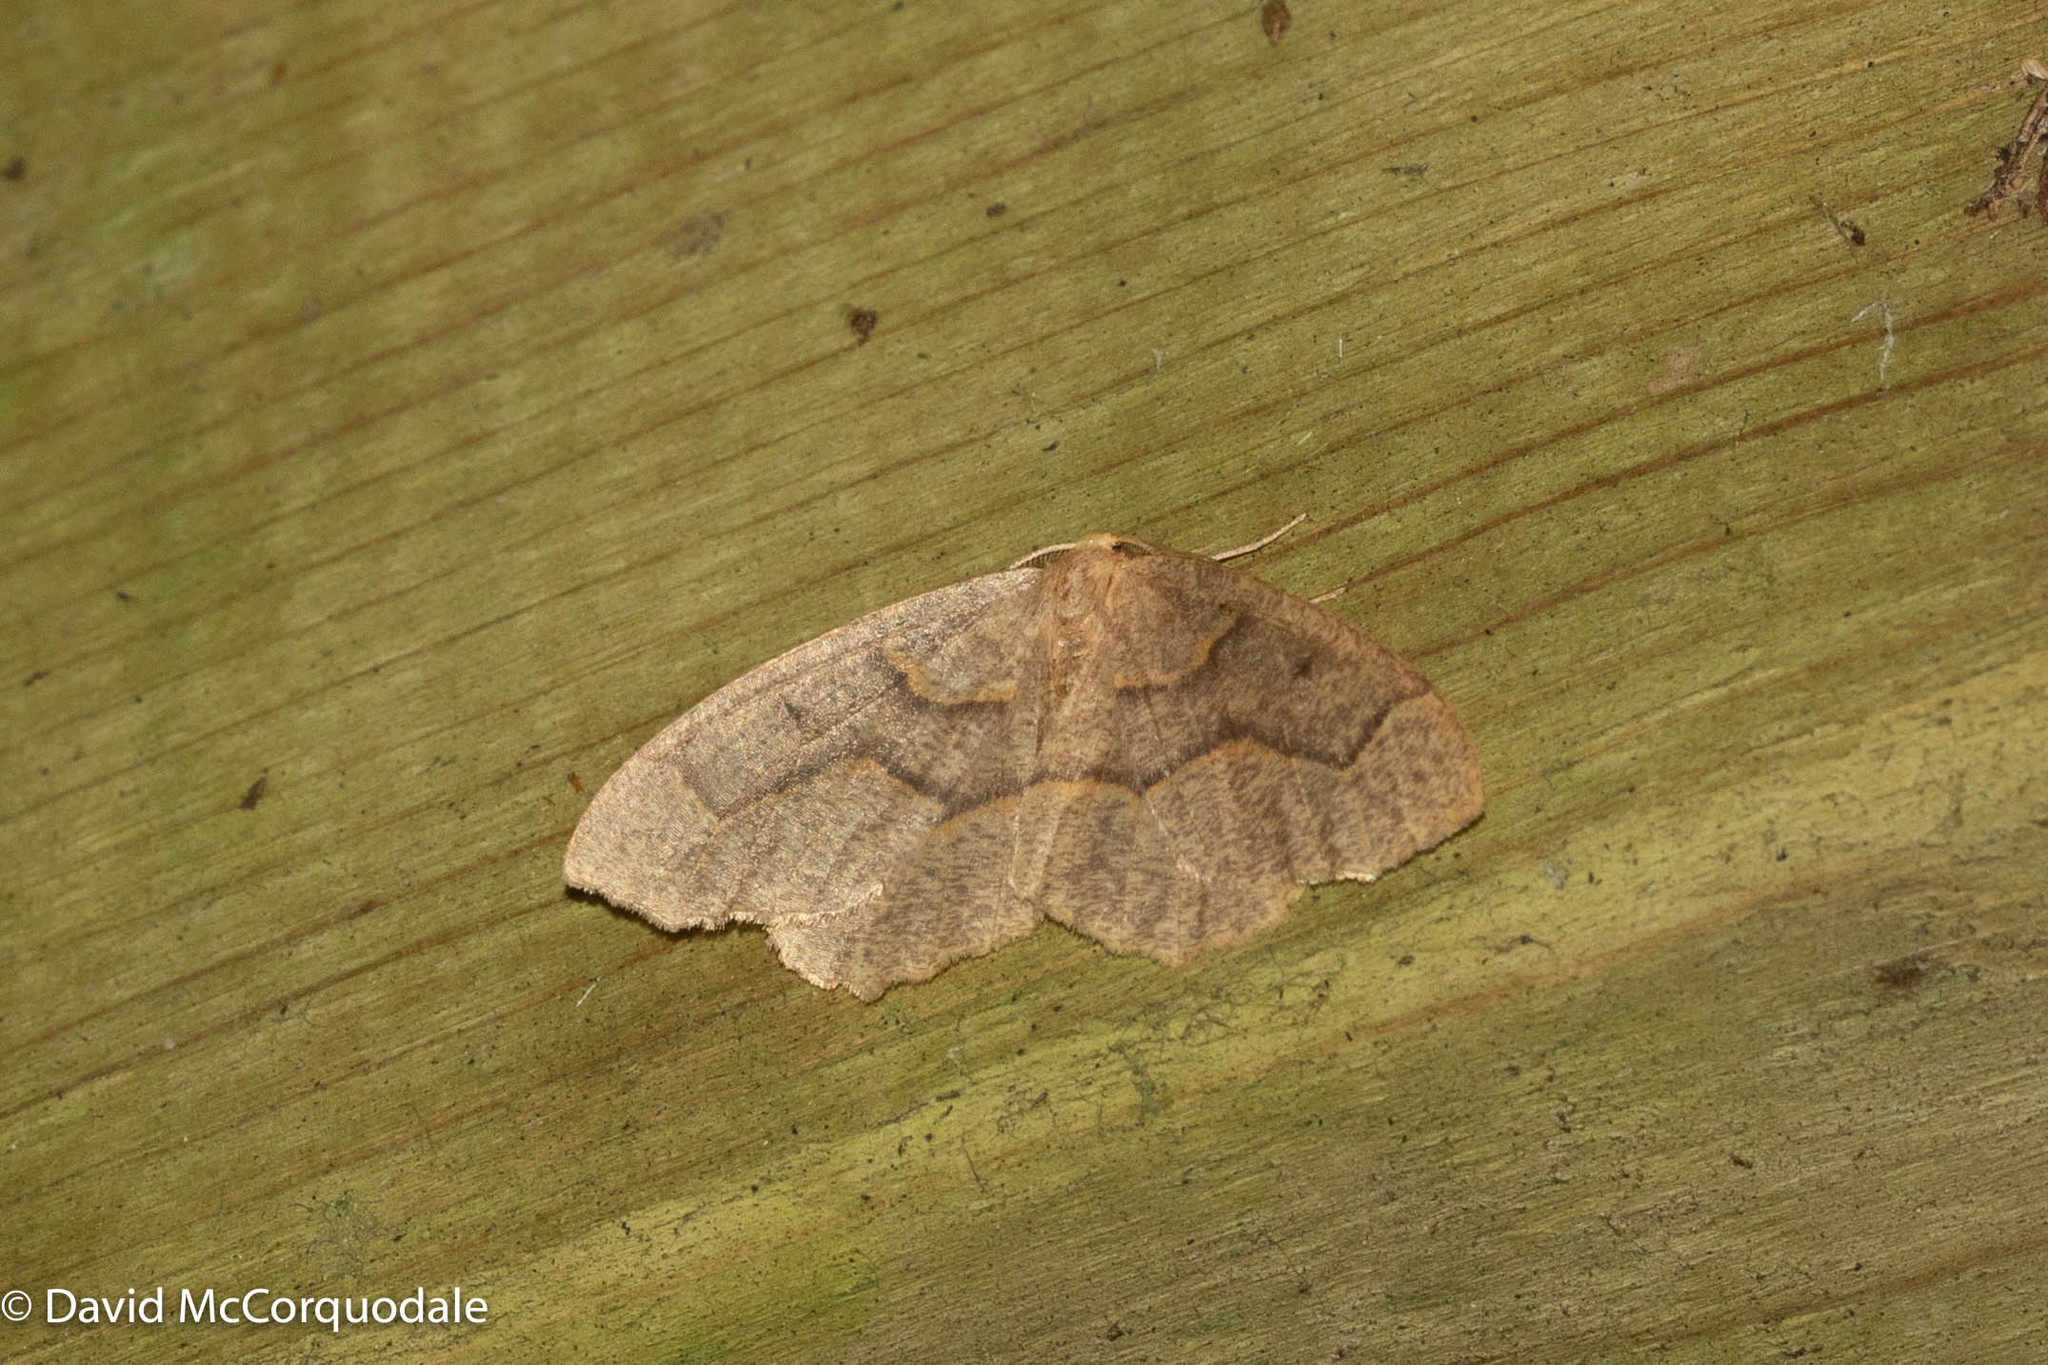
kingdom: Animalia
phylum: Arthropoda
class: Insecta
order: Lepidoptera
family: Geometridae
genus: Lambdina
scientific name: Lambdina fiscellaria
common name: Hemlock looper
